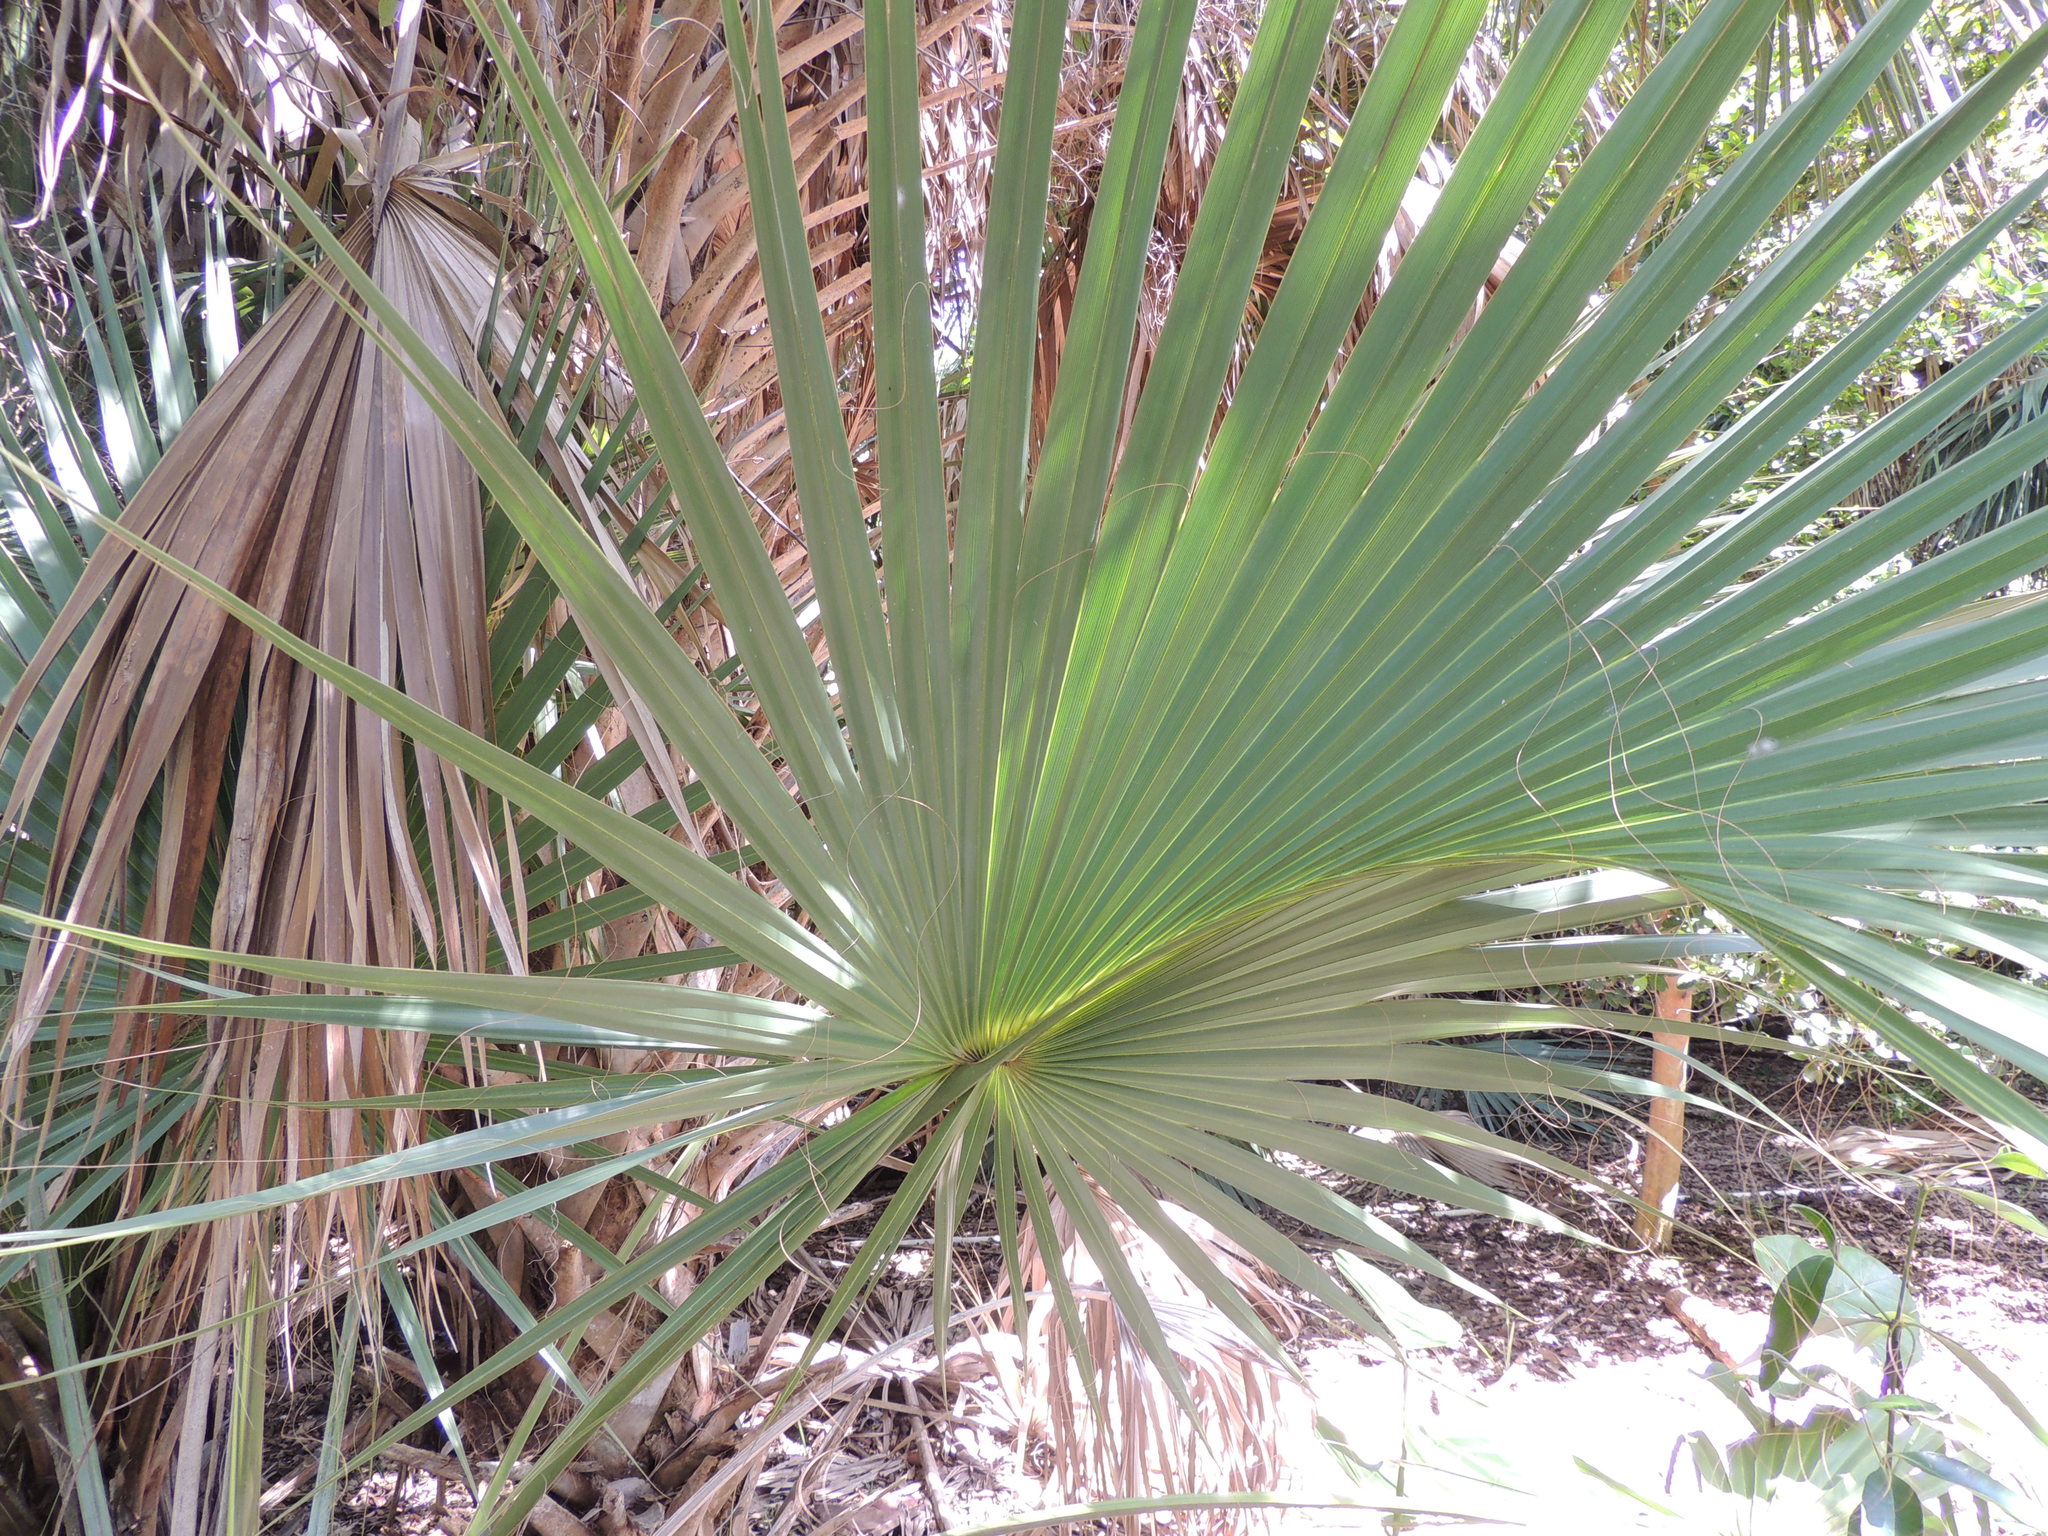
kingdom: Plantae
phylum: Tracheophyta
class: Liliopsida
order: Arecales
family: Arecaceae
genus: Sabal
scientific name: Sabal palmetto
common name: Blue palmetto
